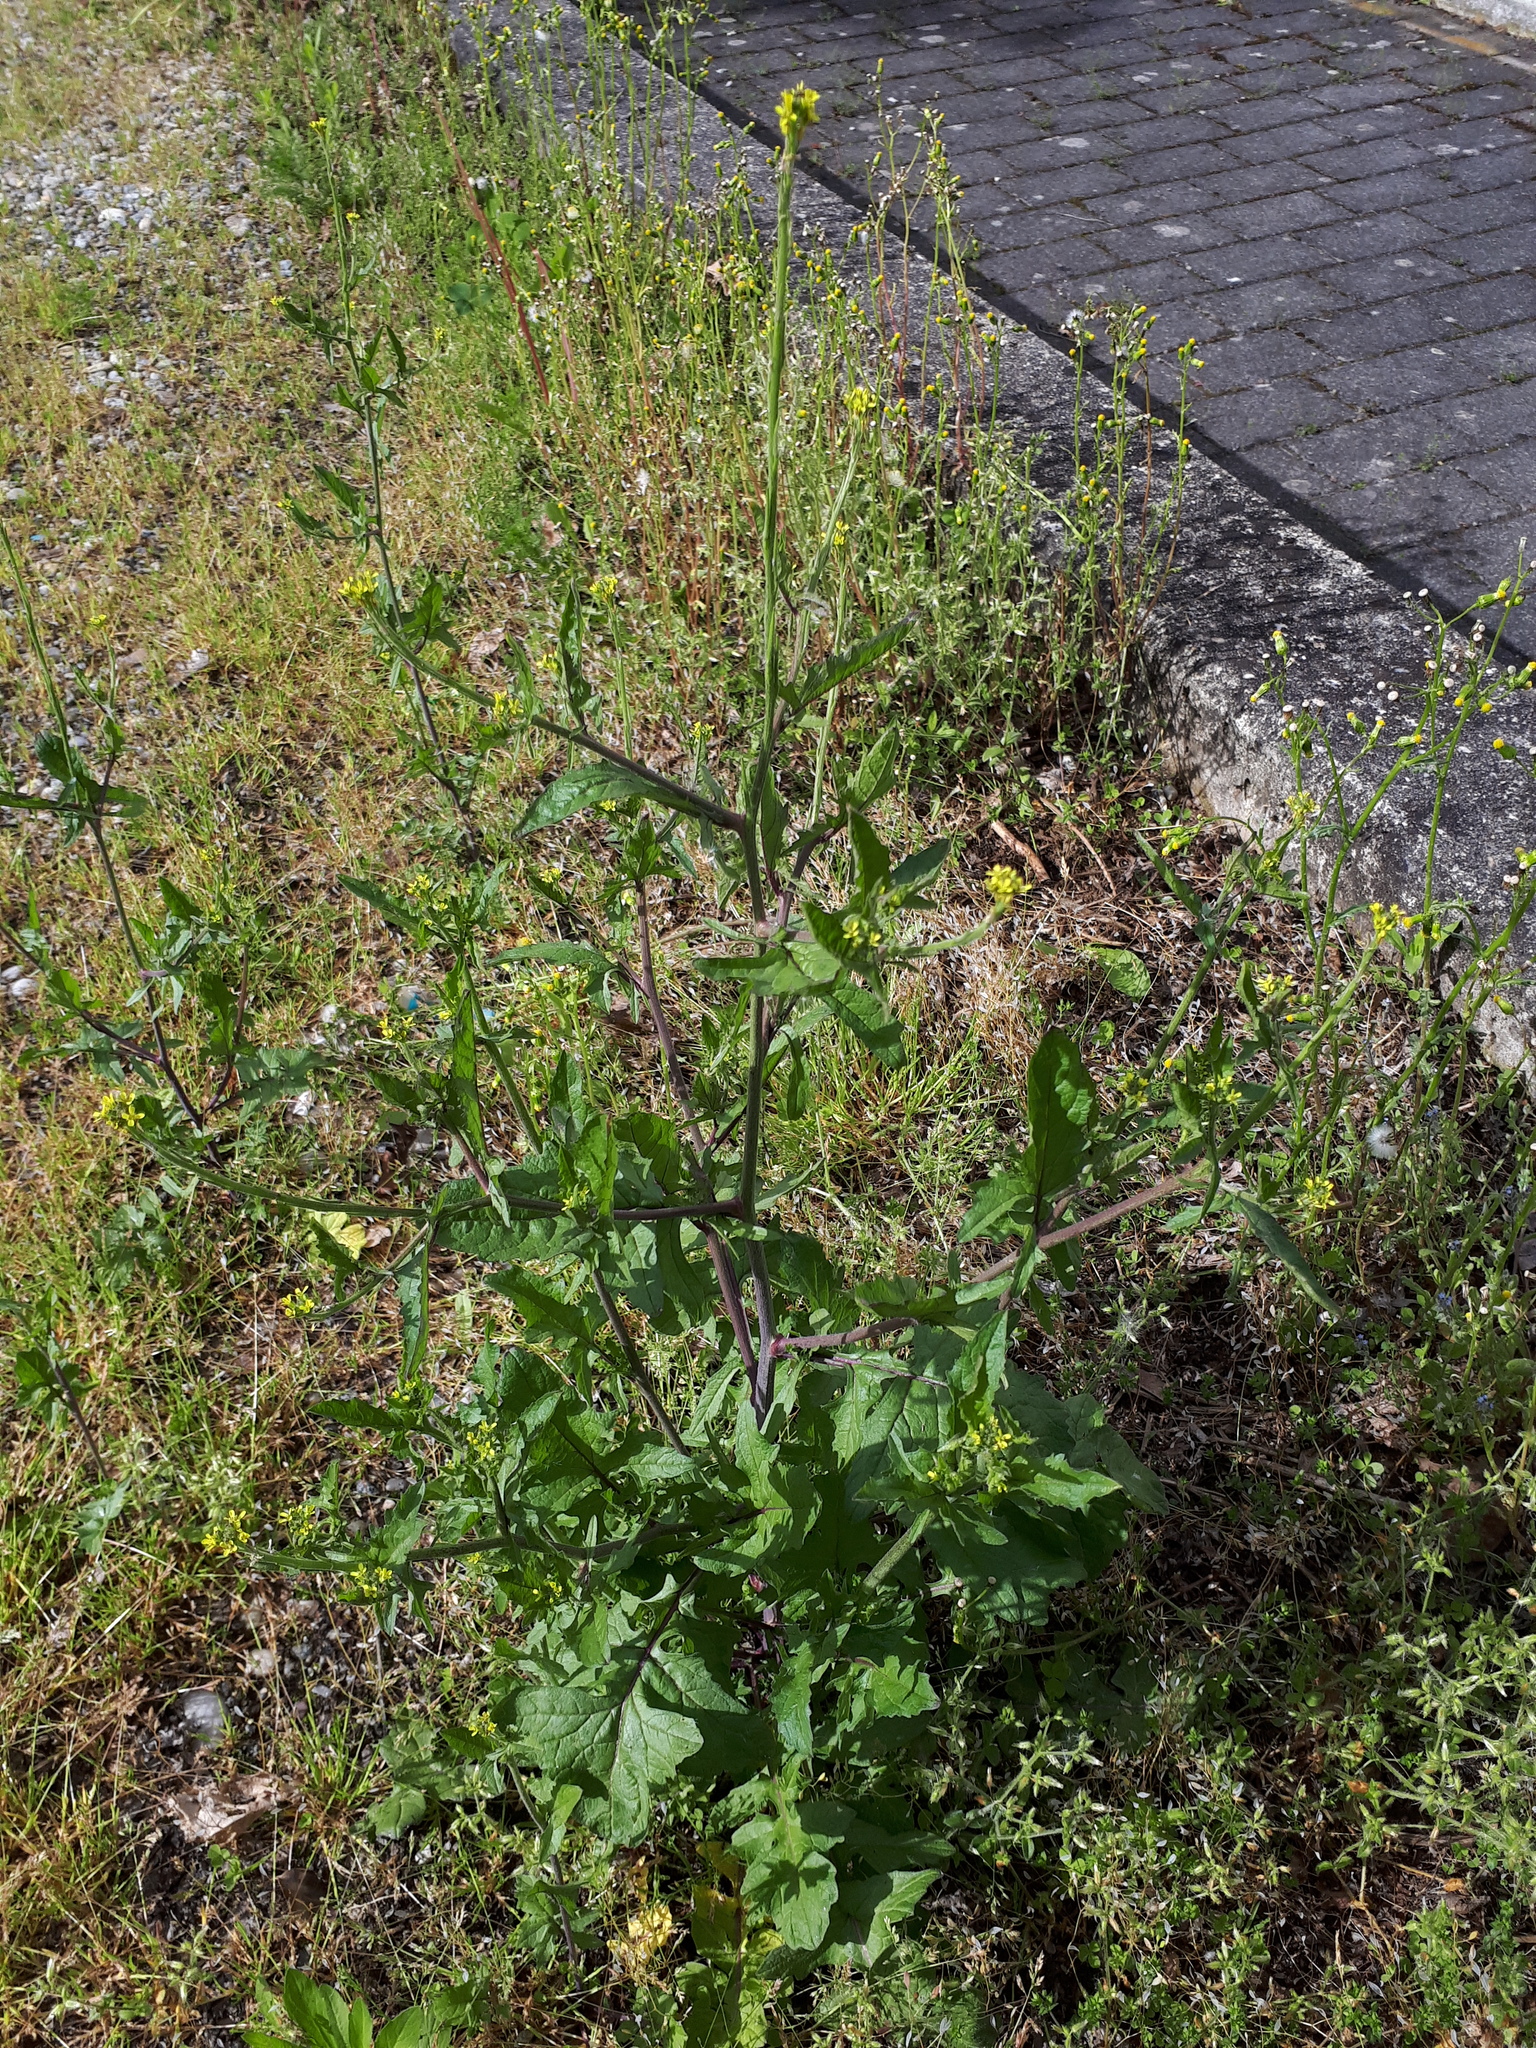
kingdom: Plantae
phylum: Tracheophyta
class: Magnoliopsida
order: Brassicales
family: Brassicaceae
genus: Sisymbrium
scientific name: Sisymbrium officinale
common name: Hedge mustard
